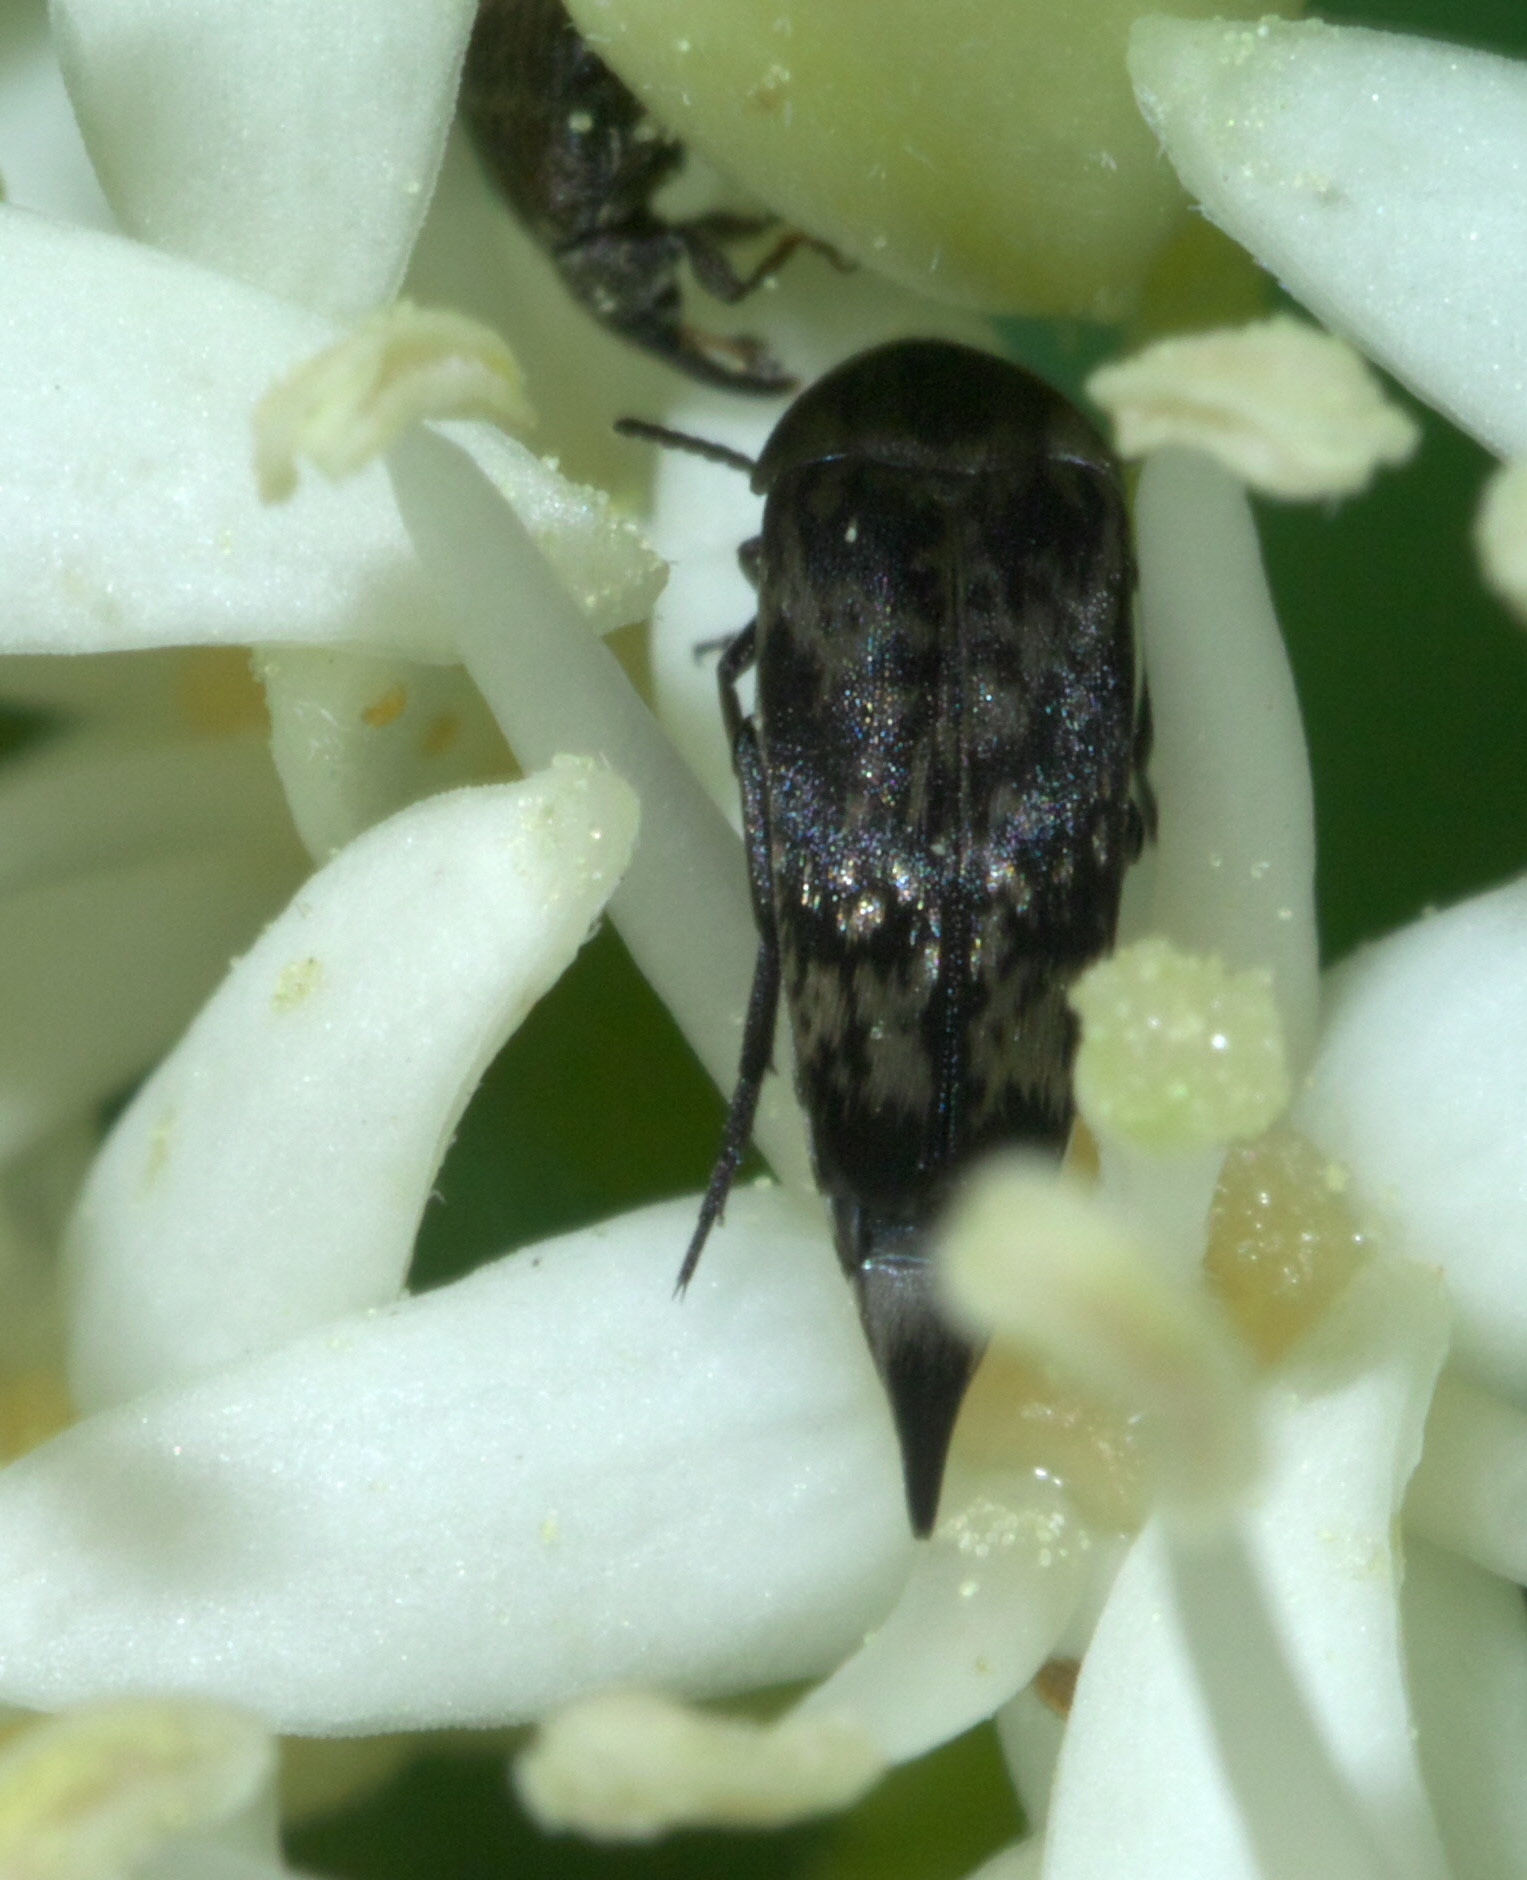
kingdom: Animalia
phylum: Arthropoda
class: Insecta
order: Coleoptera
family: Mordellidae
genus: Mordella
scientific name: Mordella marginata
